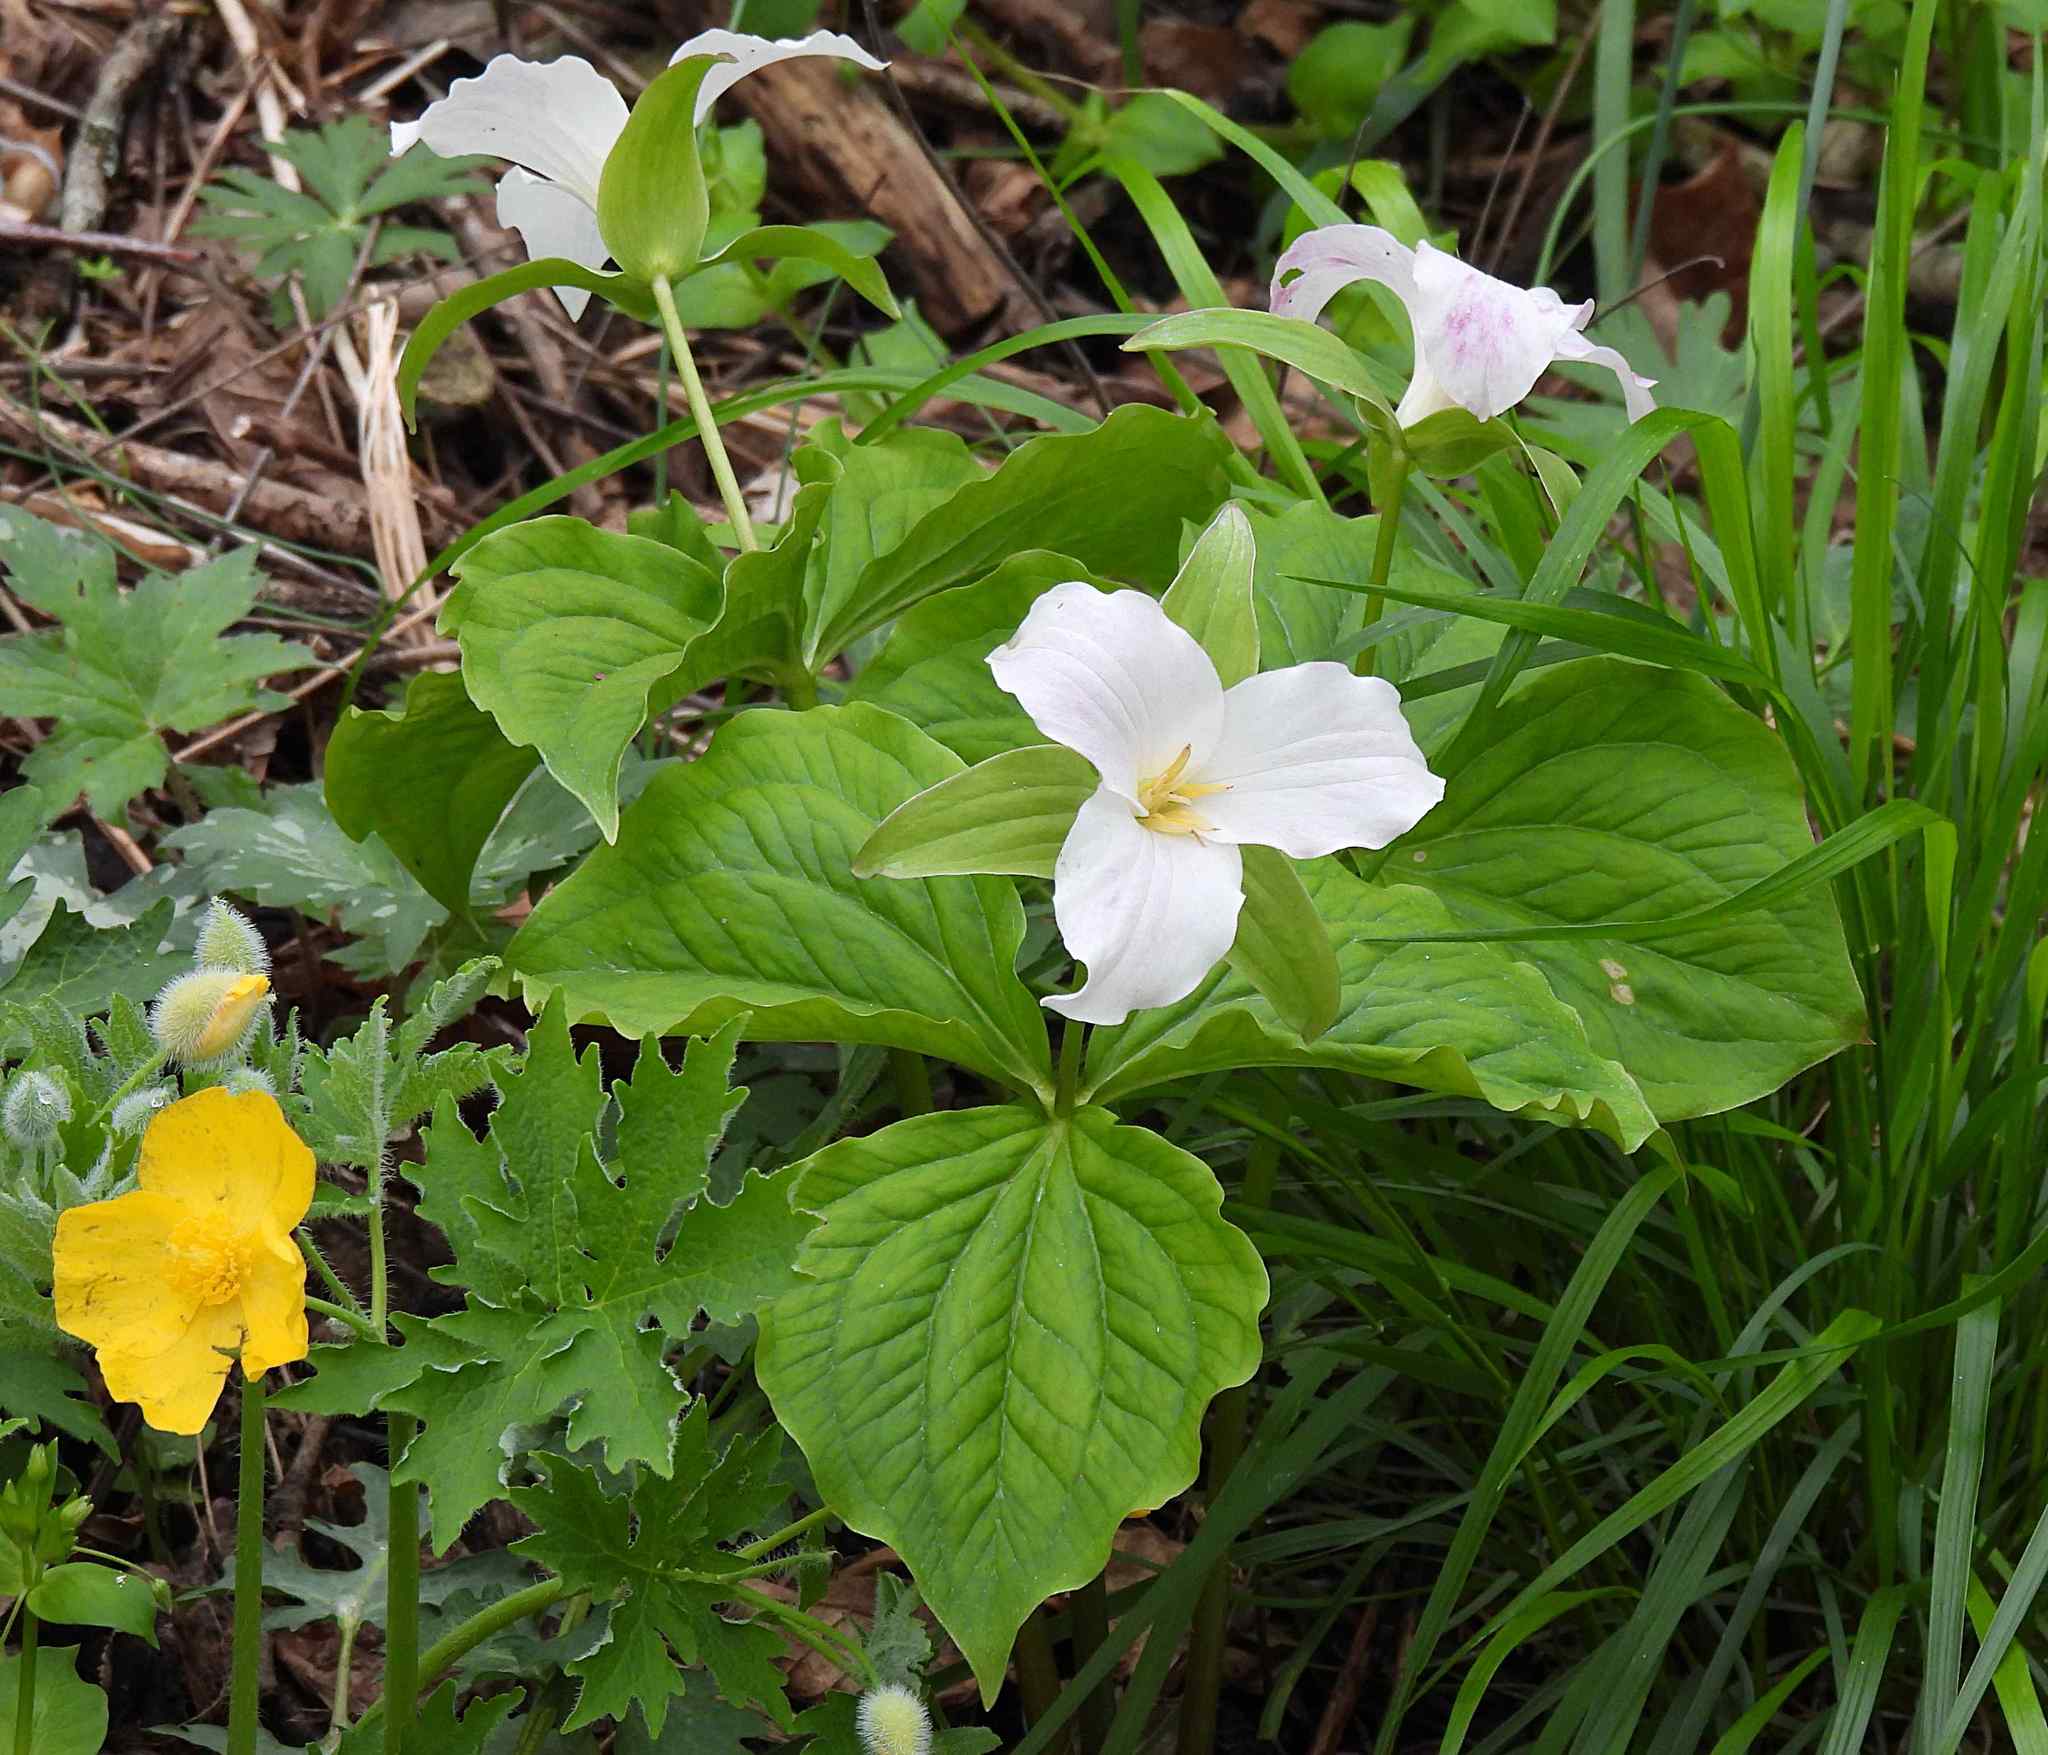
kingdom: Plantae
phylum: Tracheophyta
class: Liliopsida
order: Liliales
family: Melanthiaceae
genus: Trillium
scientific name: Trillium grandiflorum
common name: Great white trillium
